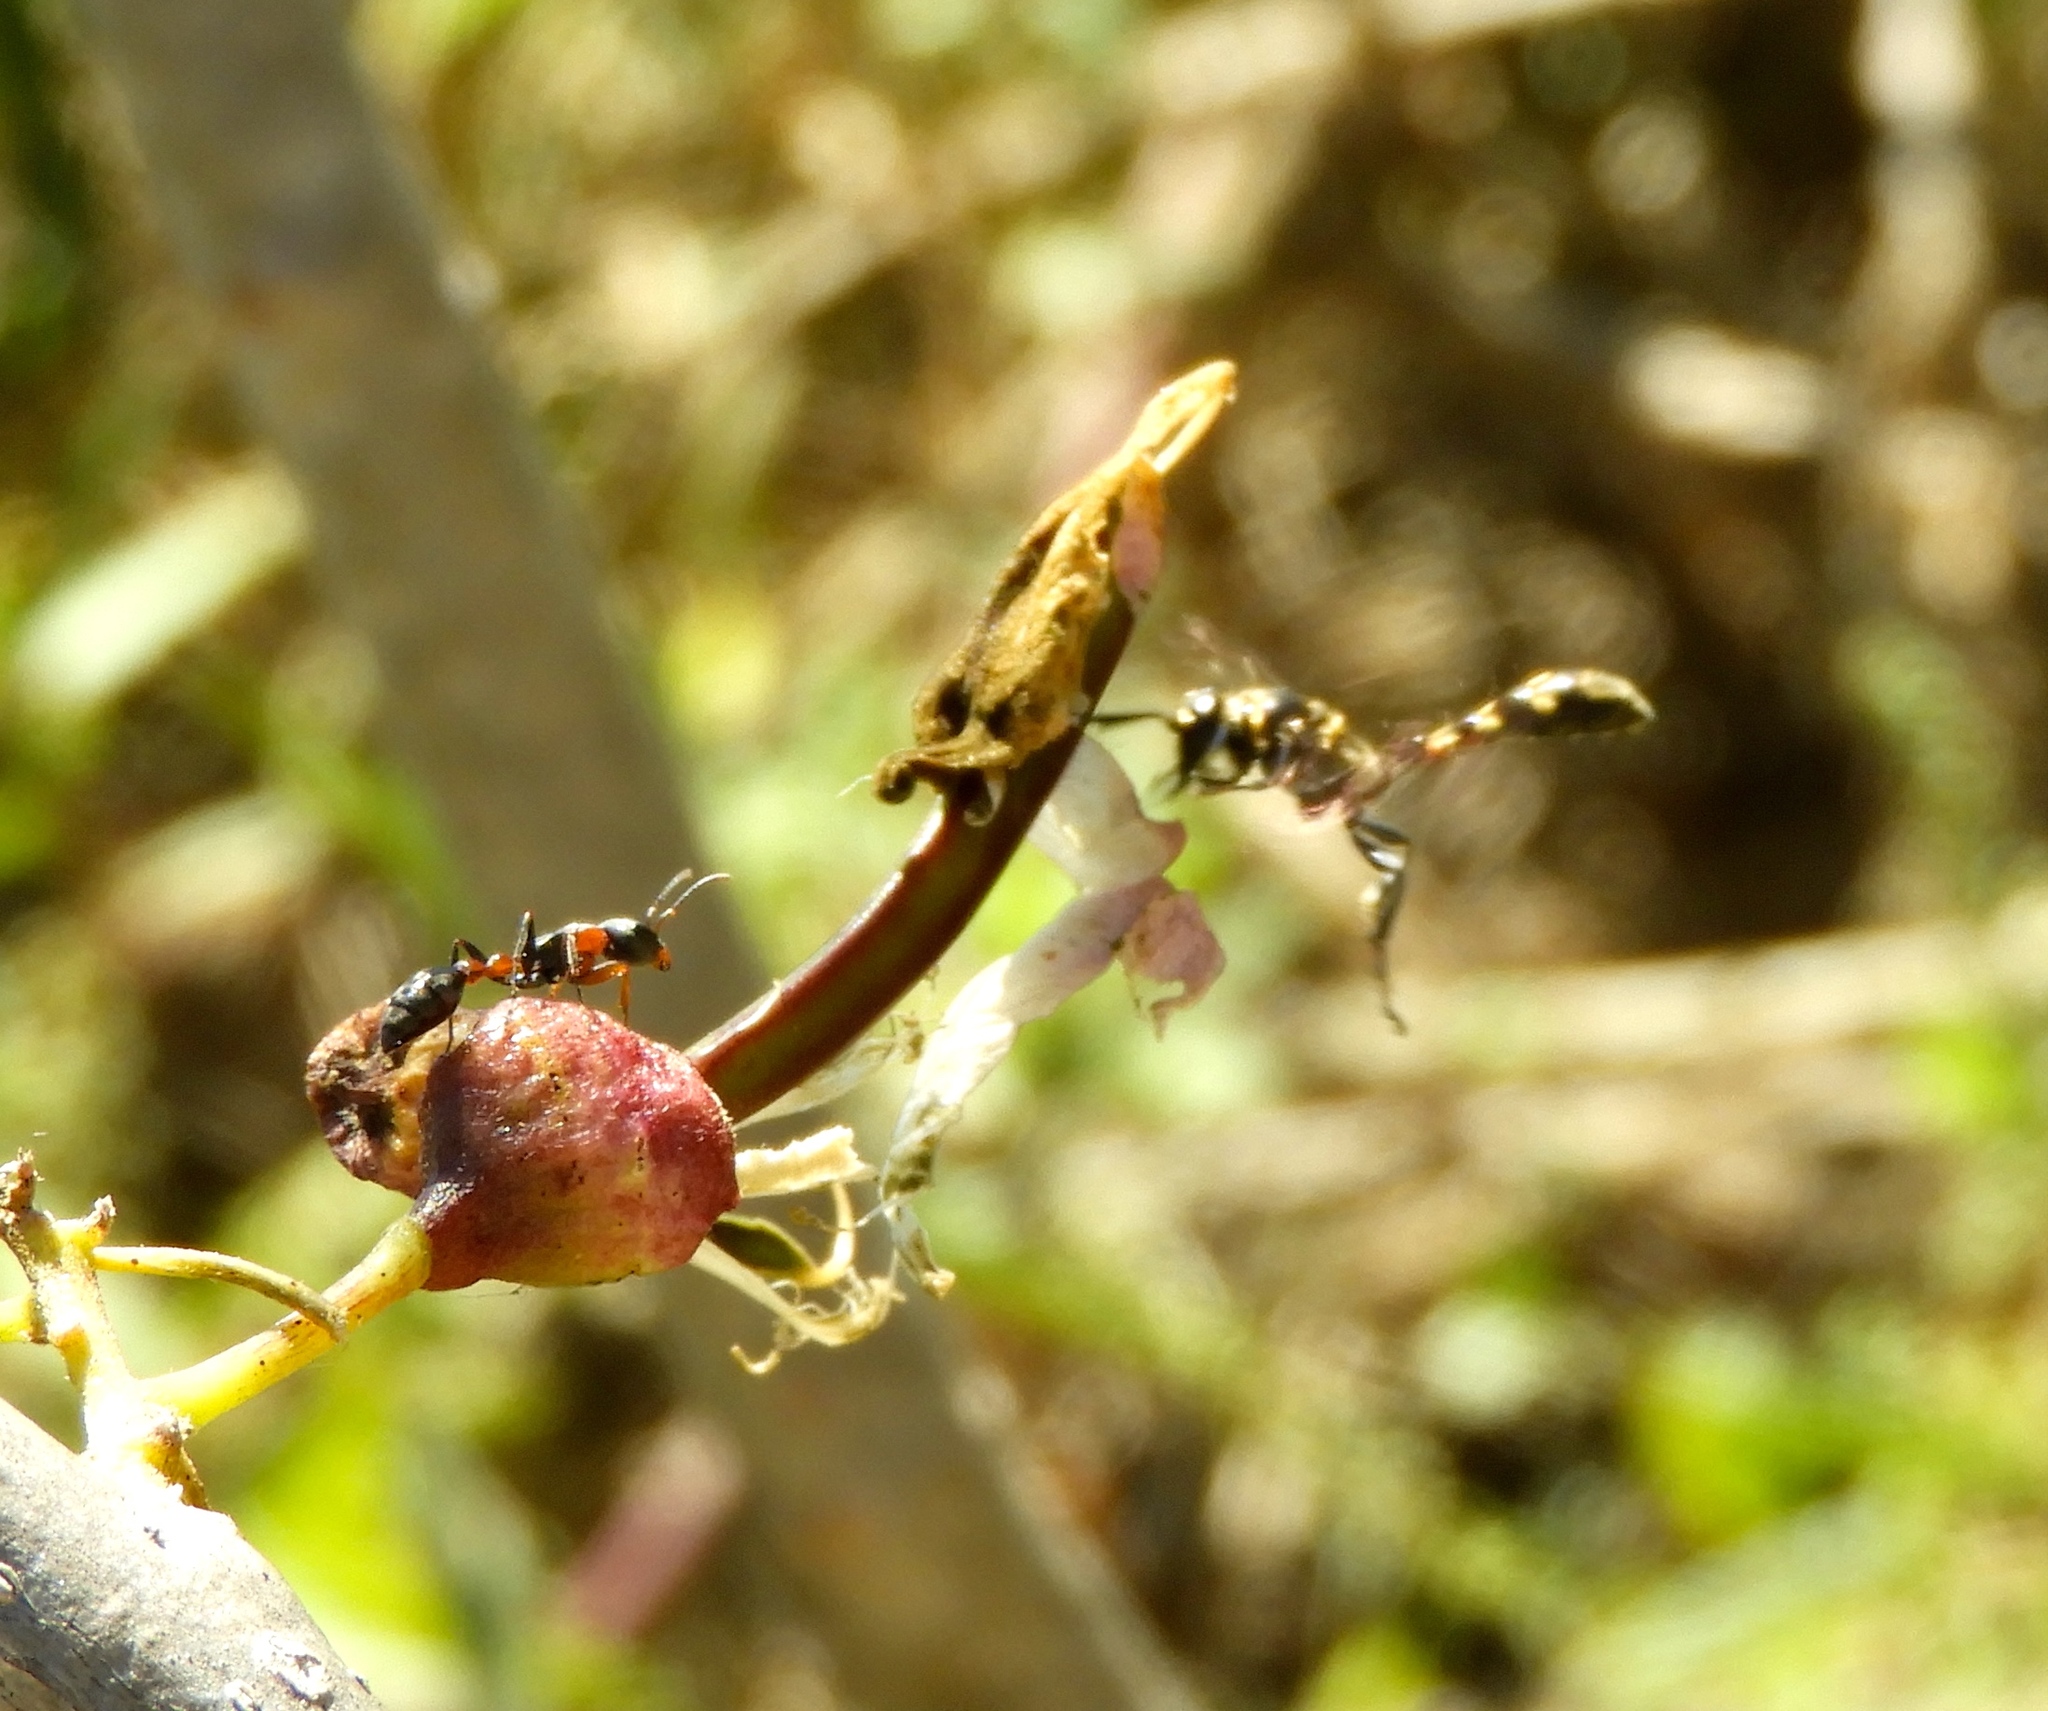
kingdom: Animalia
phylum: Arthropoda
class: Insecta
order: Hymenoptera
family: Crabronidae
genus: Trypoxylon
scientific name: Trypoxylon
